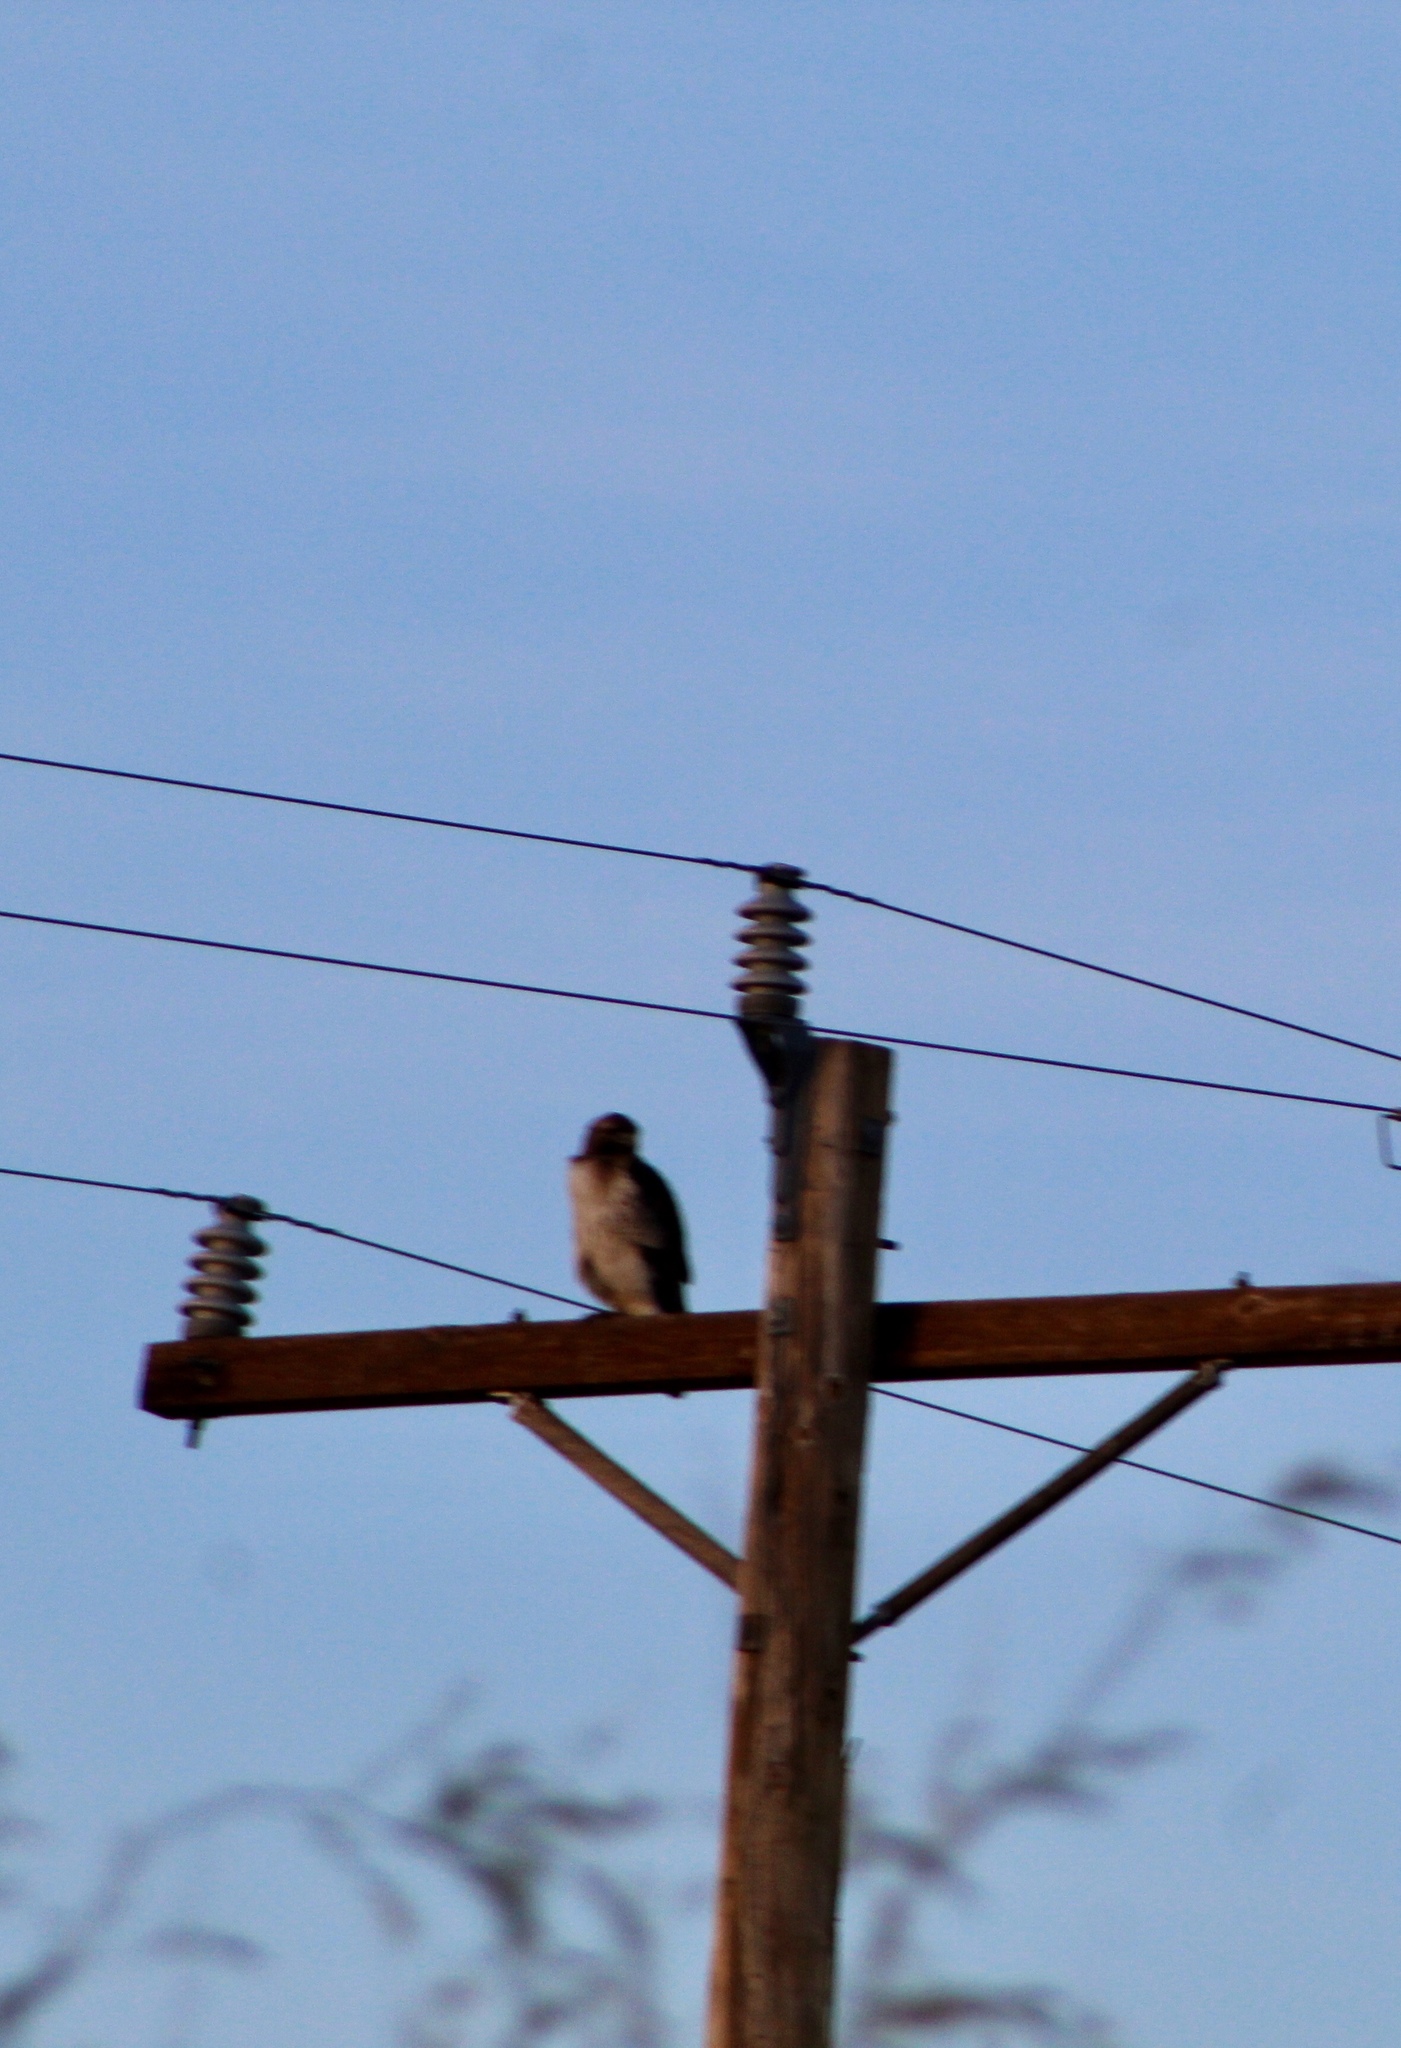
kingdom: Animalia
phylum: Chordata
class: Aves
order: Accipitriformes
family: Accipitridae
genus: Buteo
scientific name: Buteo jamaicensis
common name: Red-tailed hawk
